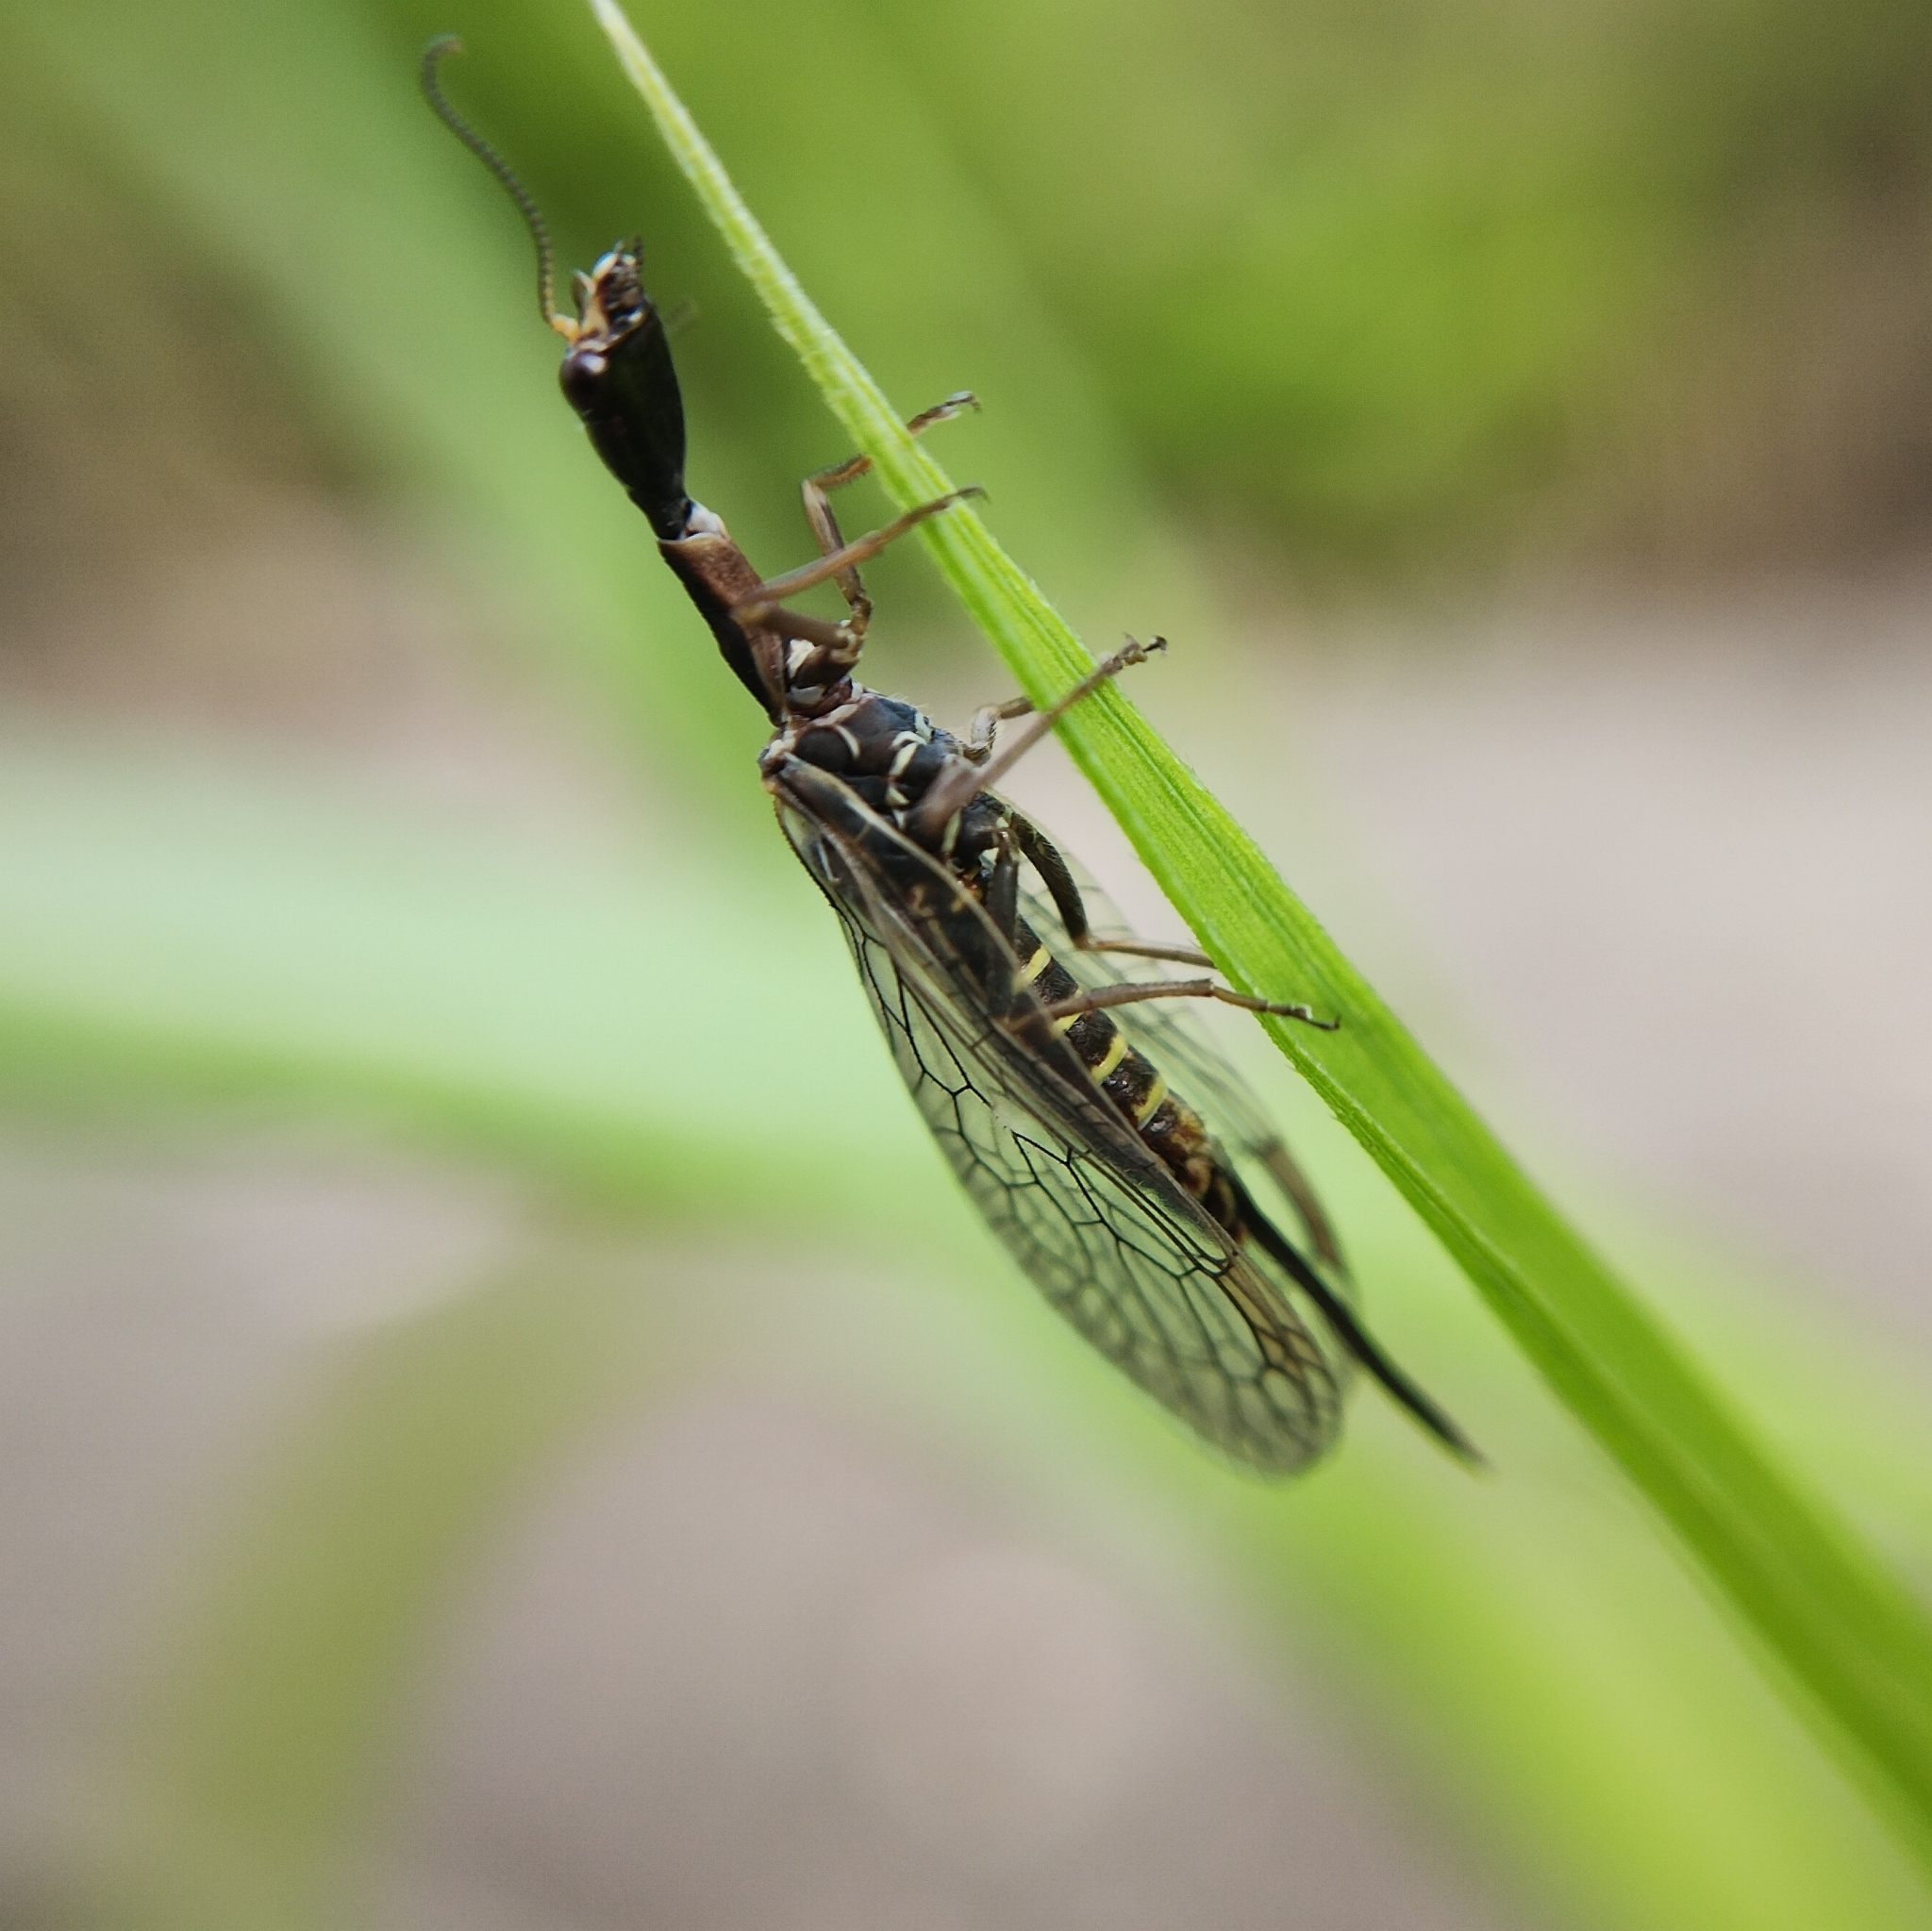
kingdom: Animalia
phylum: Arthropoda
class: Insecta
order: Raphidioptera
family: Raphidiidae
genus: Xanthostigma
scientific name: Xanthostigma xanthostigma
